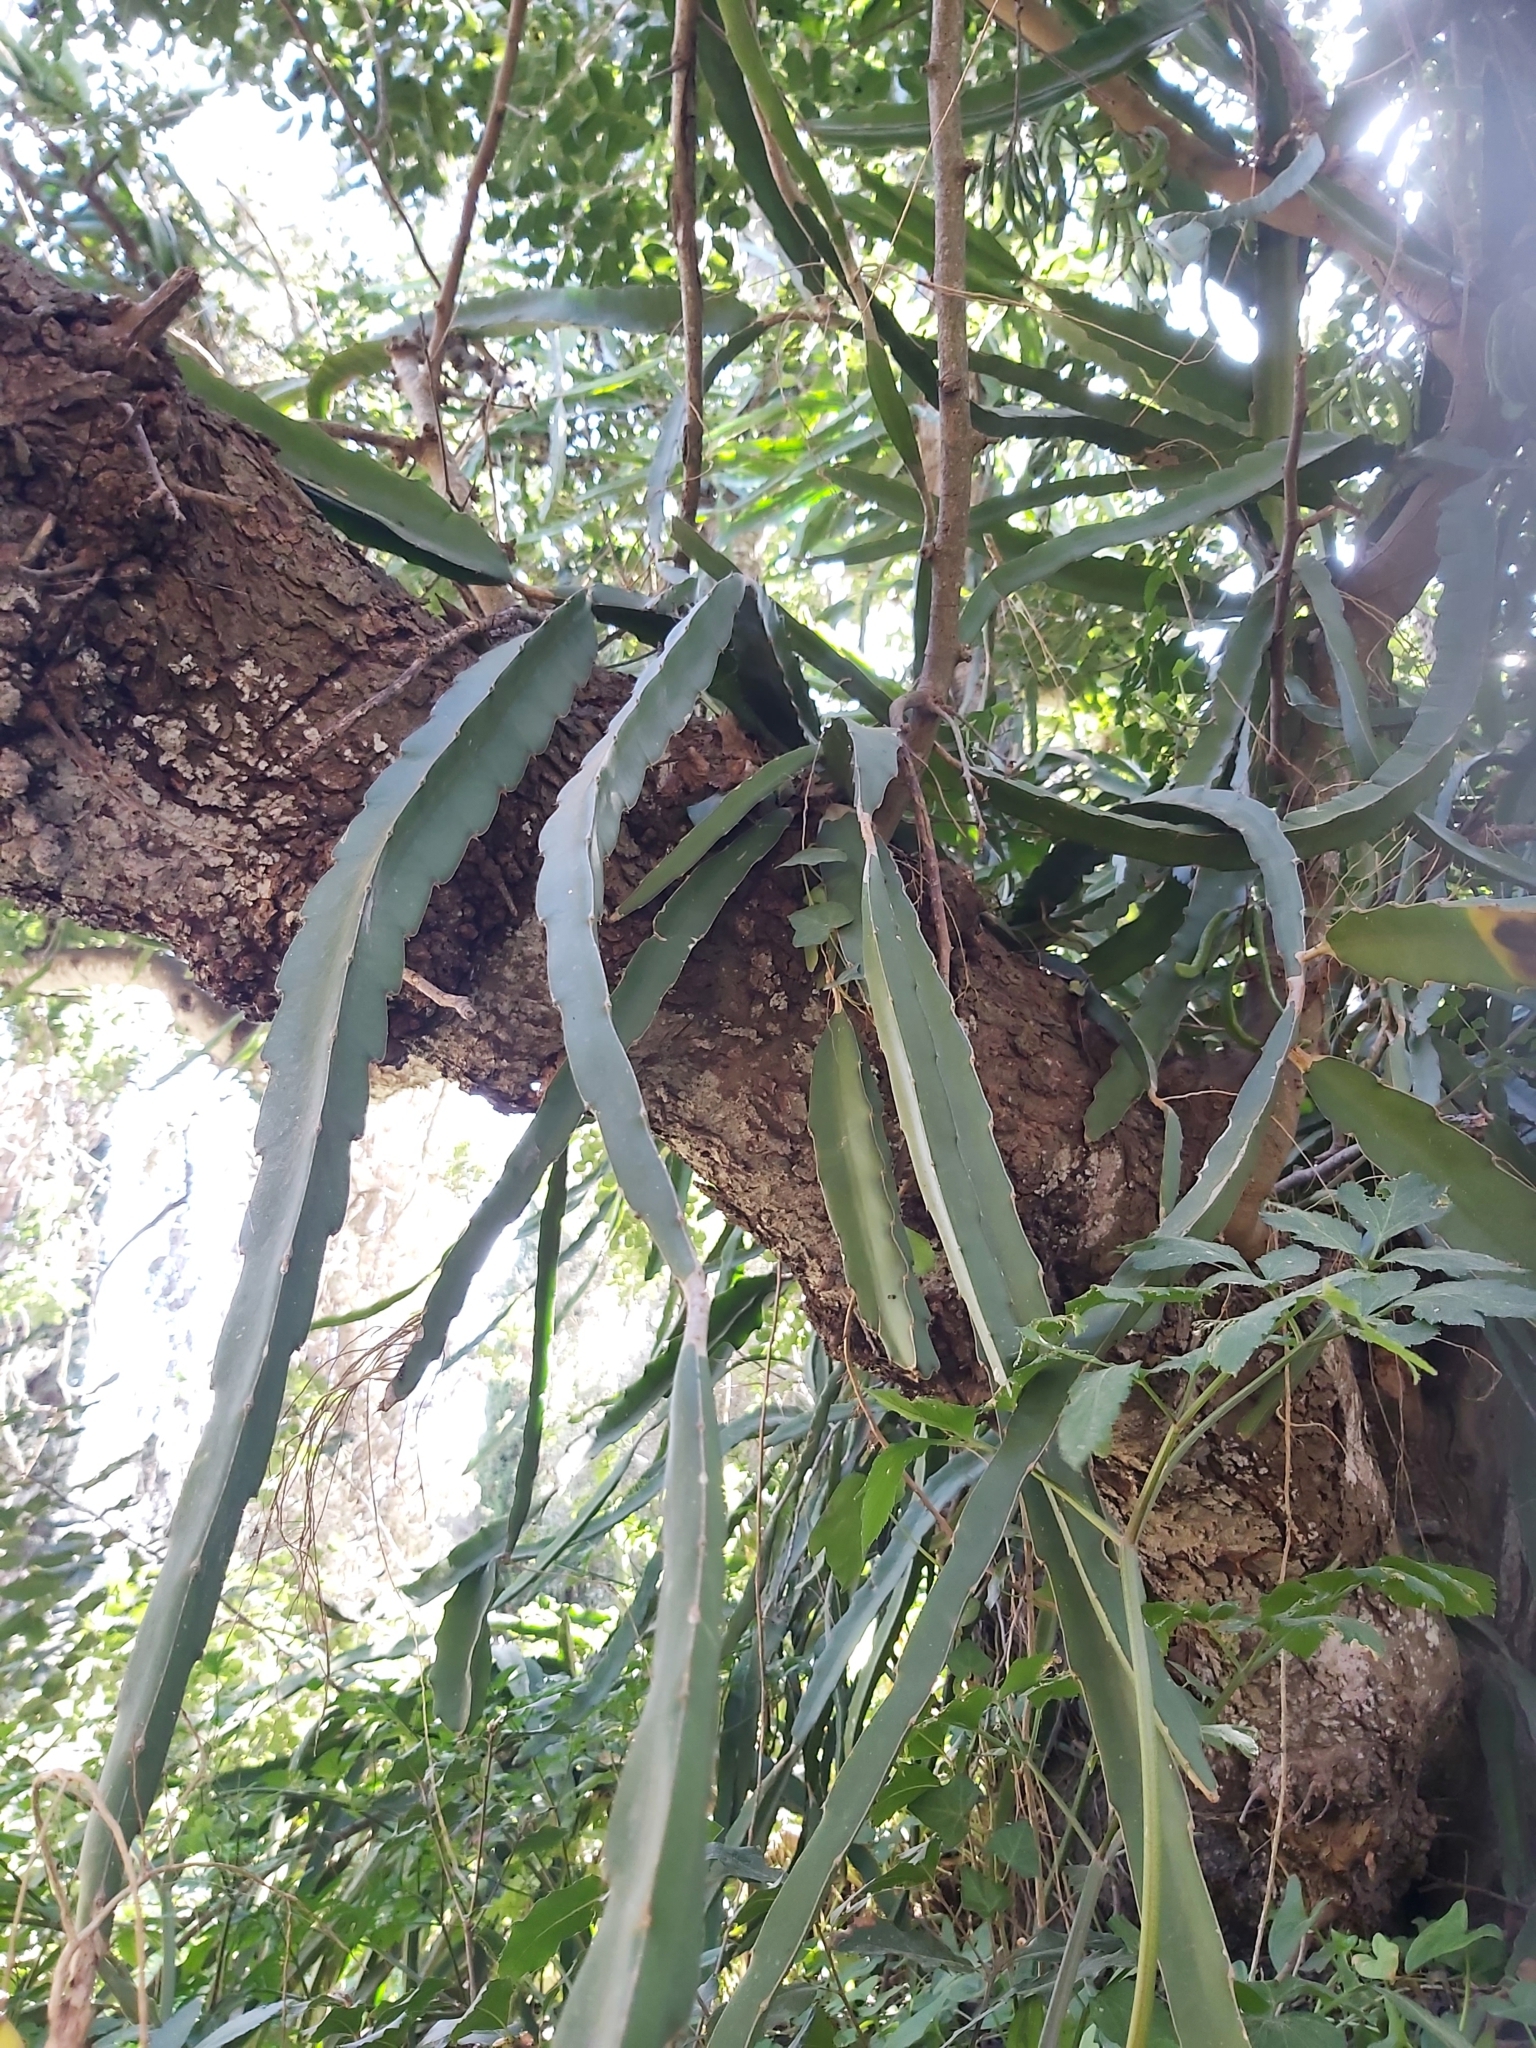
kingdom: Plantae
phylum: Tracheophyta
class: Magnoliopsida
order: Caryophyllales
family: Cactaceae
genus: Selenicereus
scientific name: Selenicereus undatus
